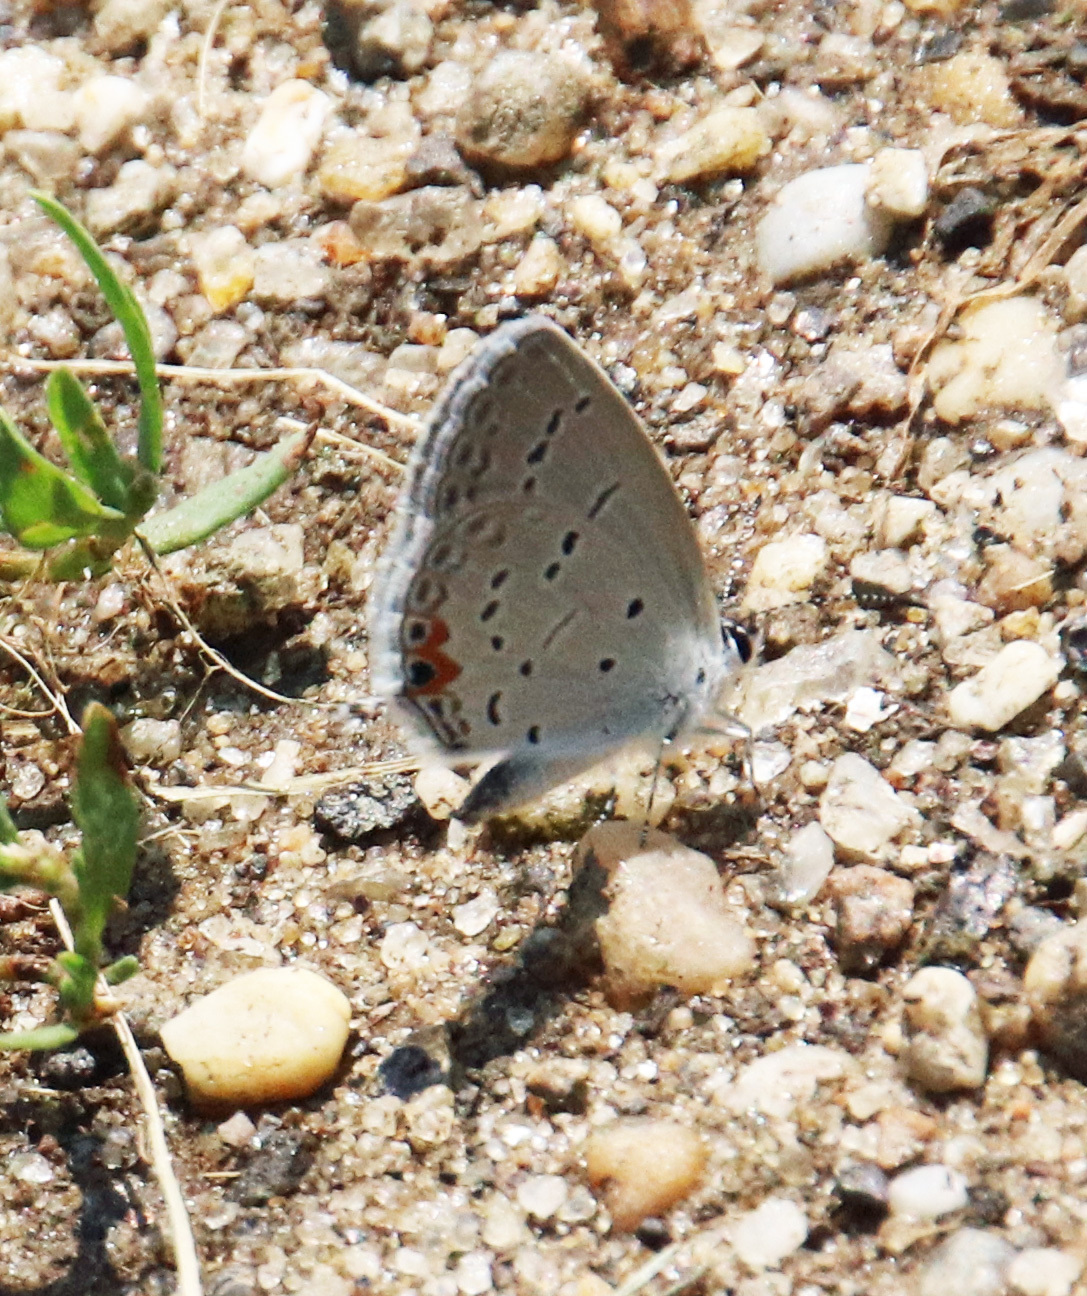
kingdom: Animalia
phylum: Arthropoda
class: Insecta
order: Lepidoptera
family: Lycaenidae
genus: Elkalyce
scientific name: Elkalyce comyntas
